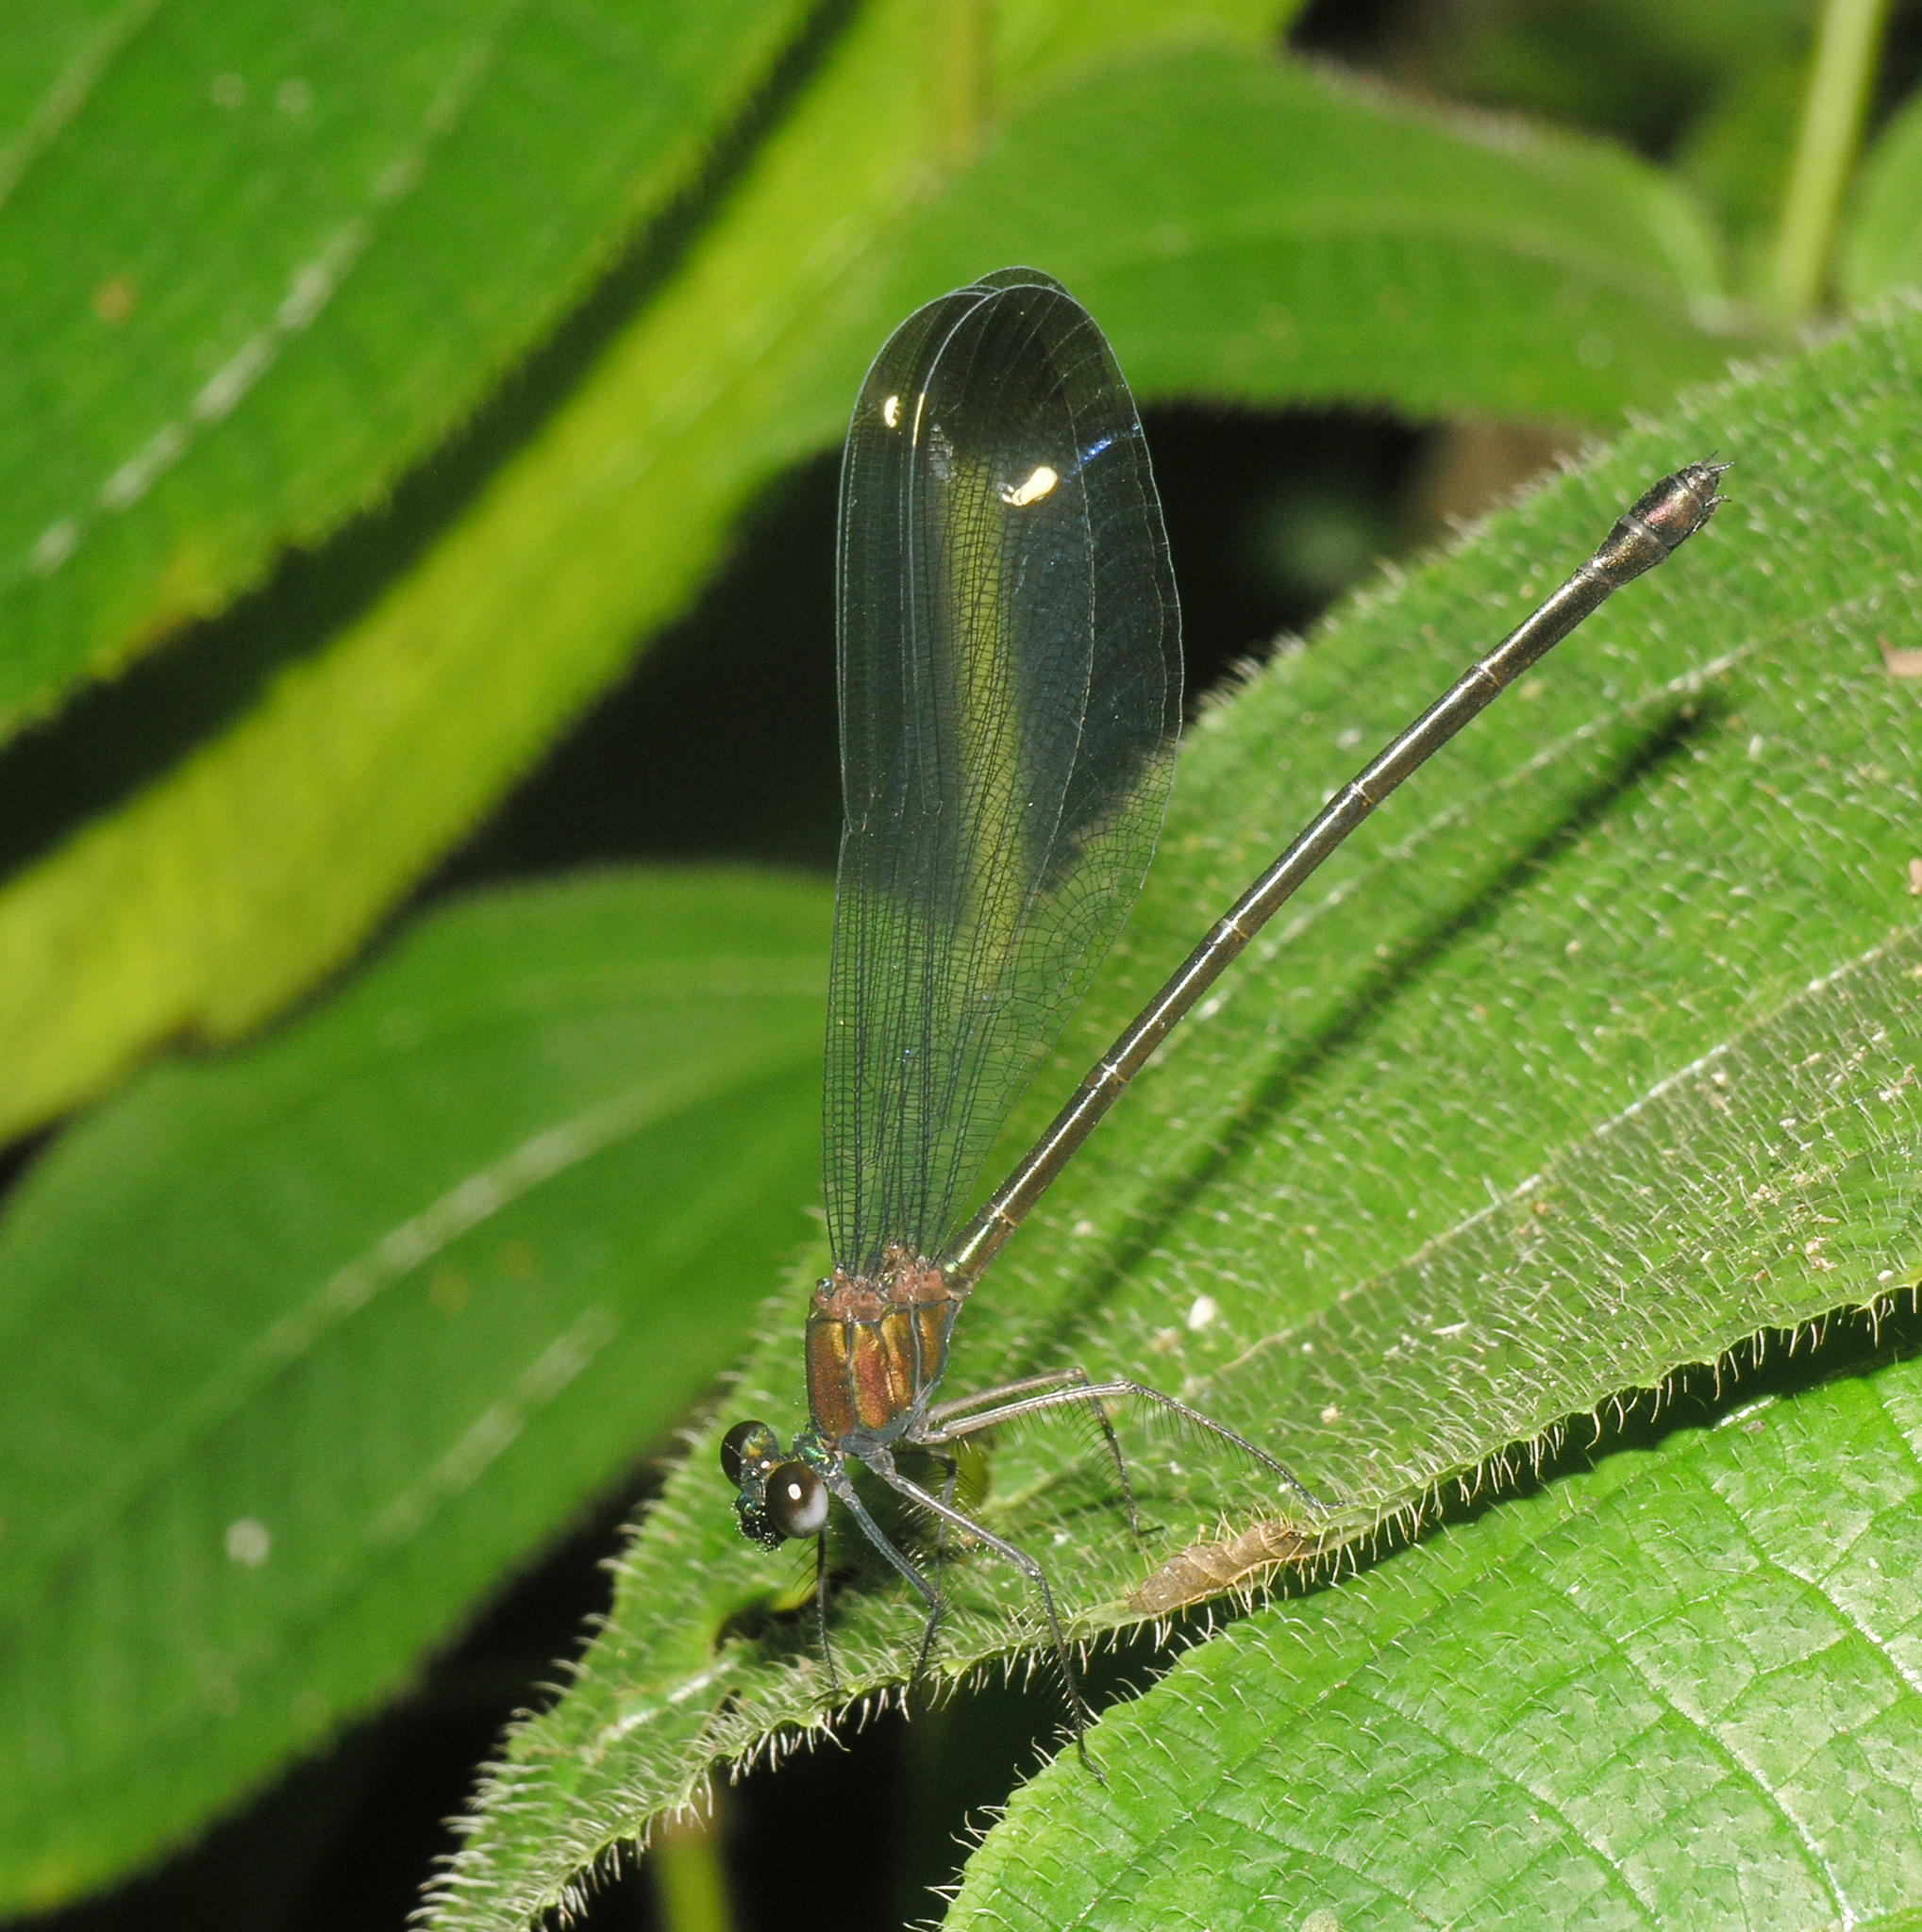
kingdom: Animalia
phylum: Arthropoda
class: Insecta
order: Odonata
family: Calopterygidae
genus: Echo
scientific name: Echo modesta
